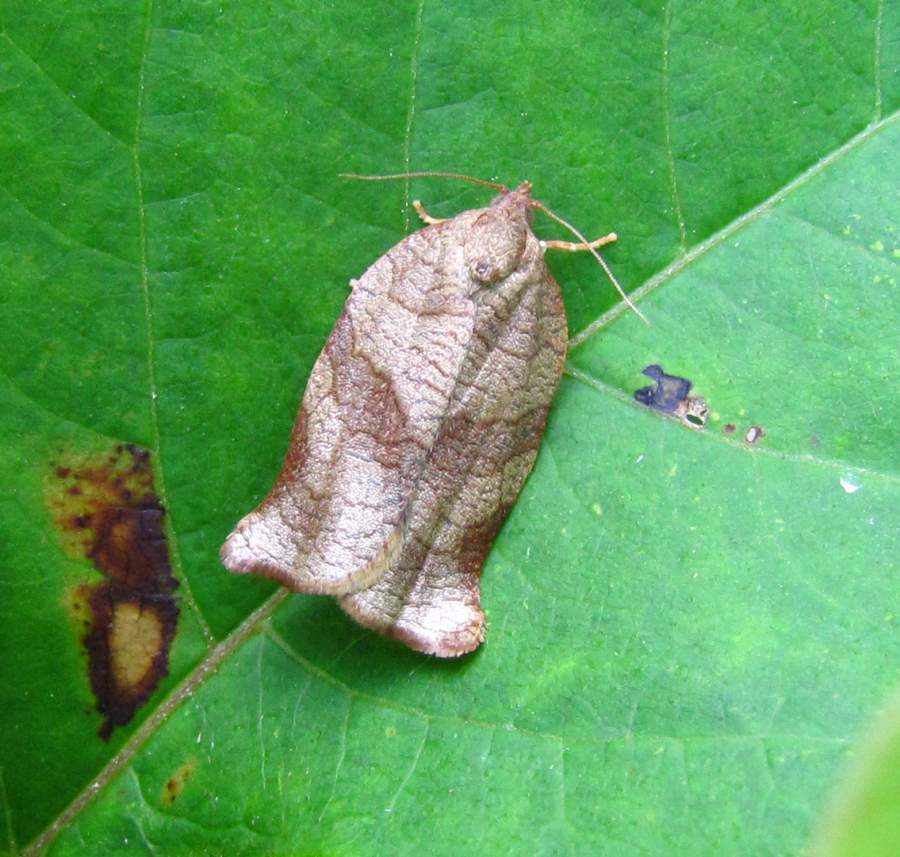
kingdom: Animalia
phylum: Arthropoda
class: Insecta
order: Lepidoptera
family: Tortricidae
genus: Choristoneura
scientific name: Choristoneura rosaceana
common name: Oblique-banded leafroller moth
